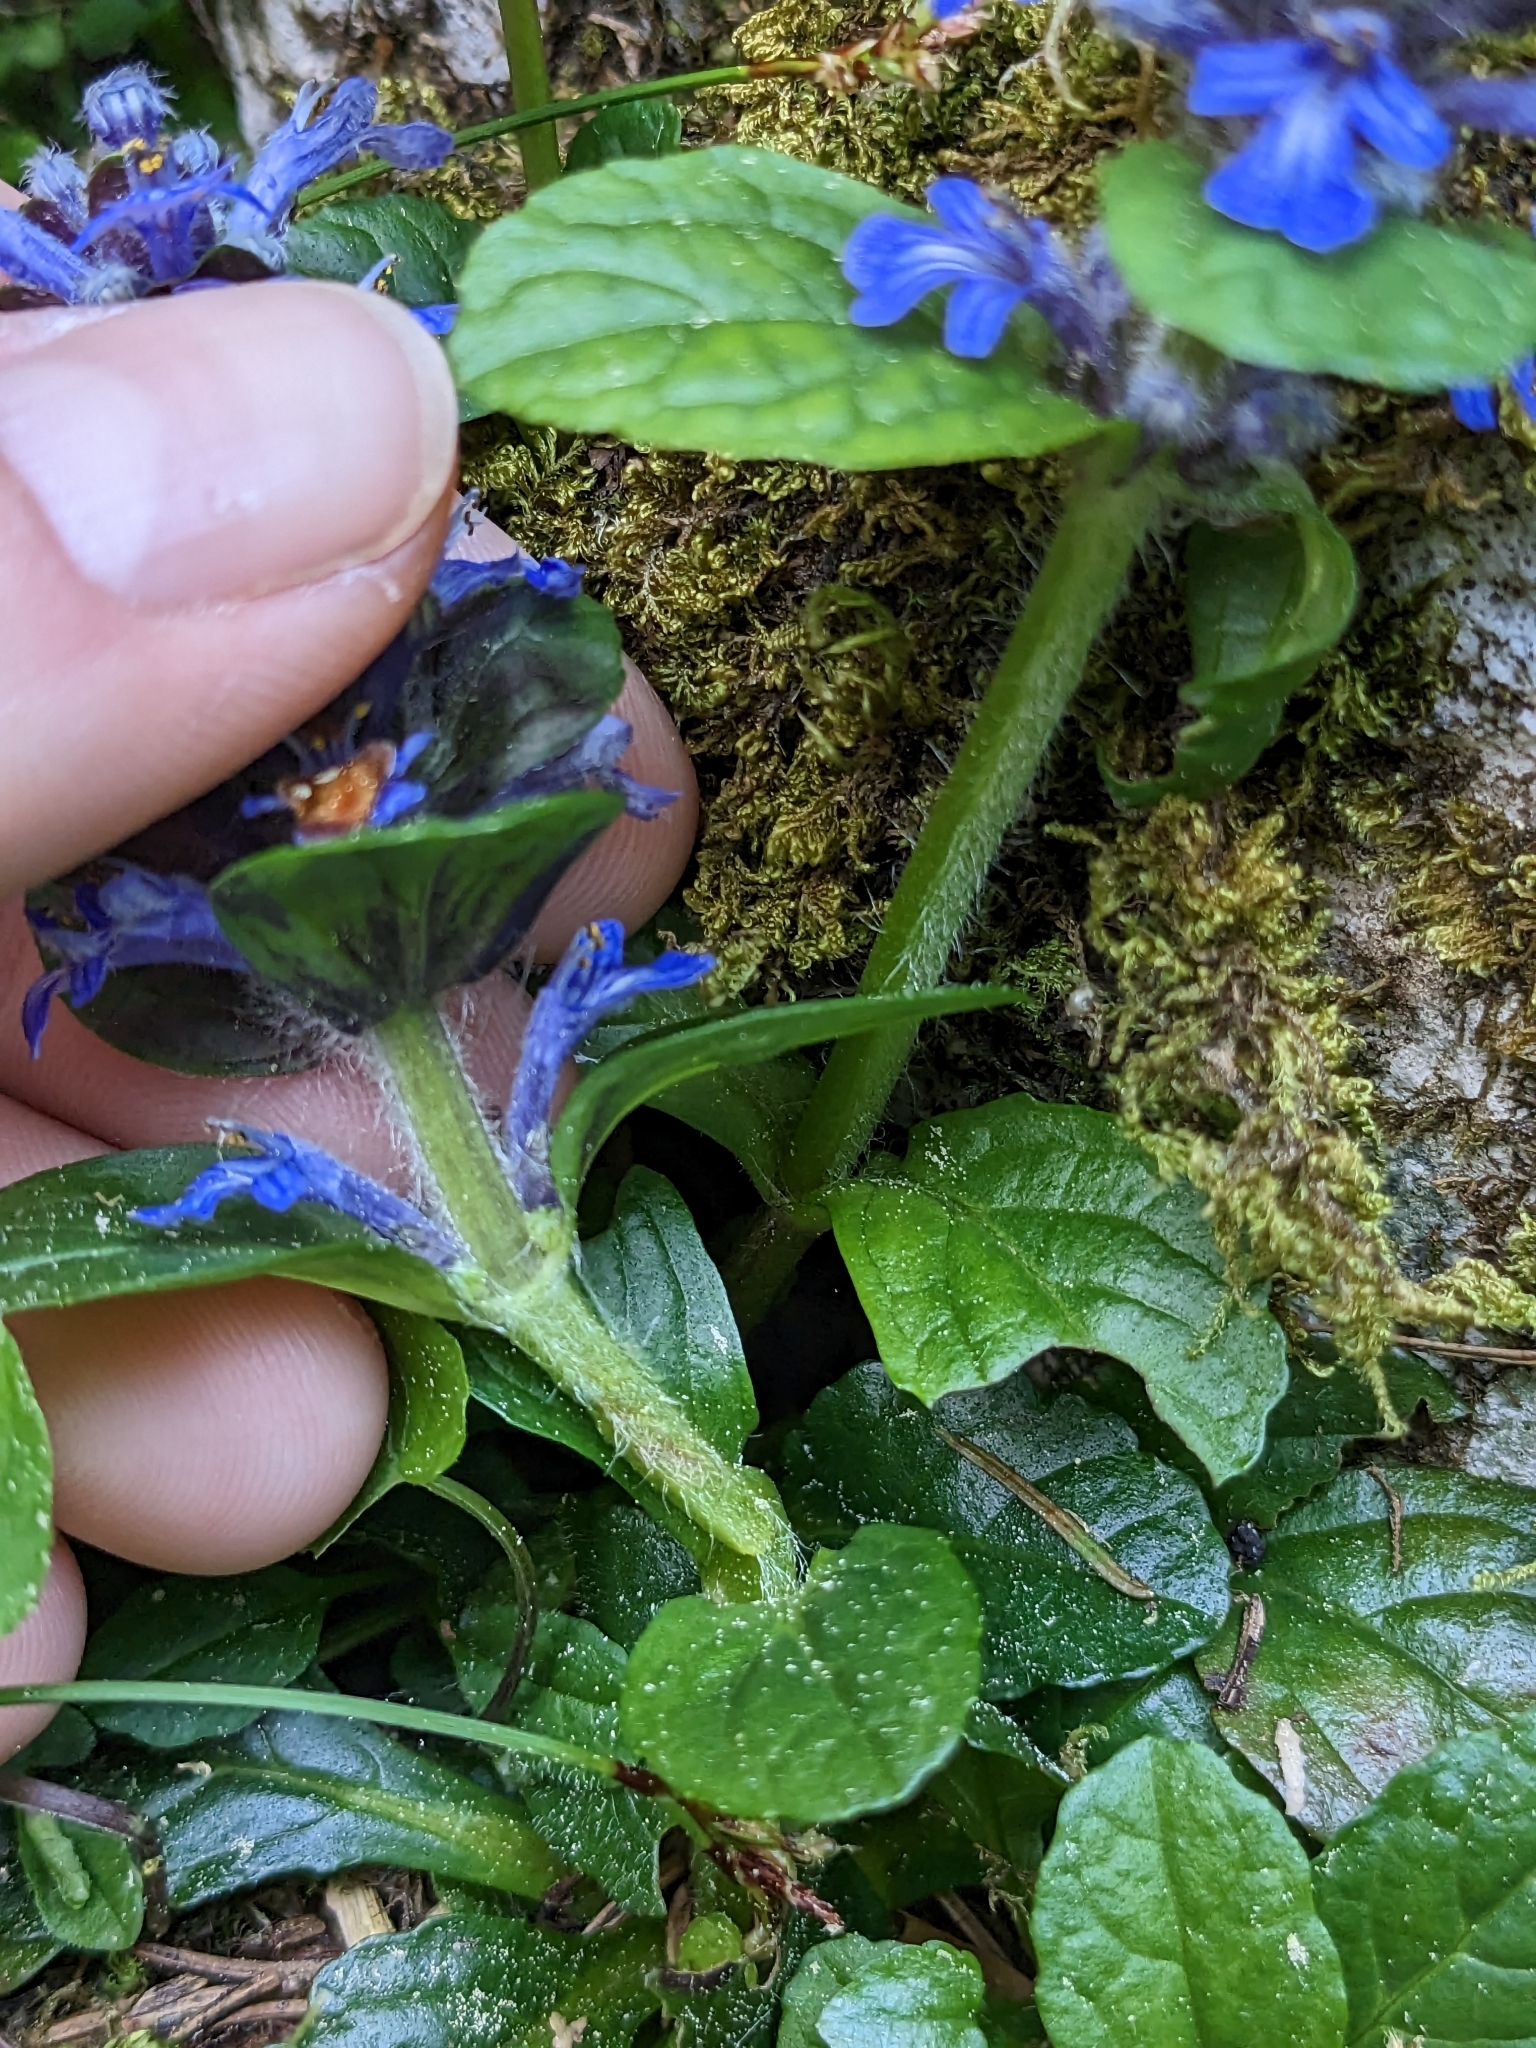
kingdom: Plantae
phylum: Tracheophyta
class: Magnoliopsida
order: Lamiales
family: Lamiaceae
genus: Ajuga
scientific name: Ajuga reptans
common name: Bugle
